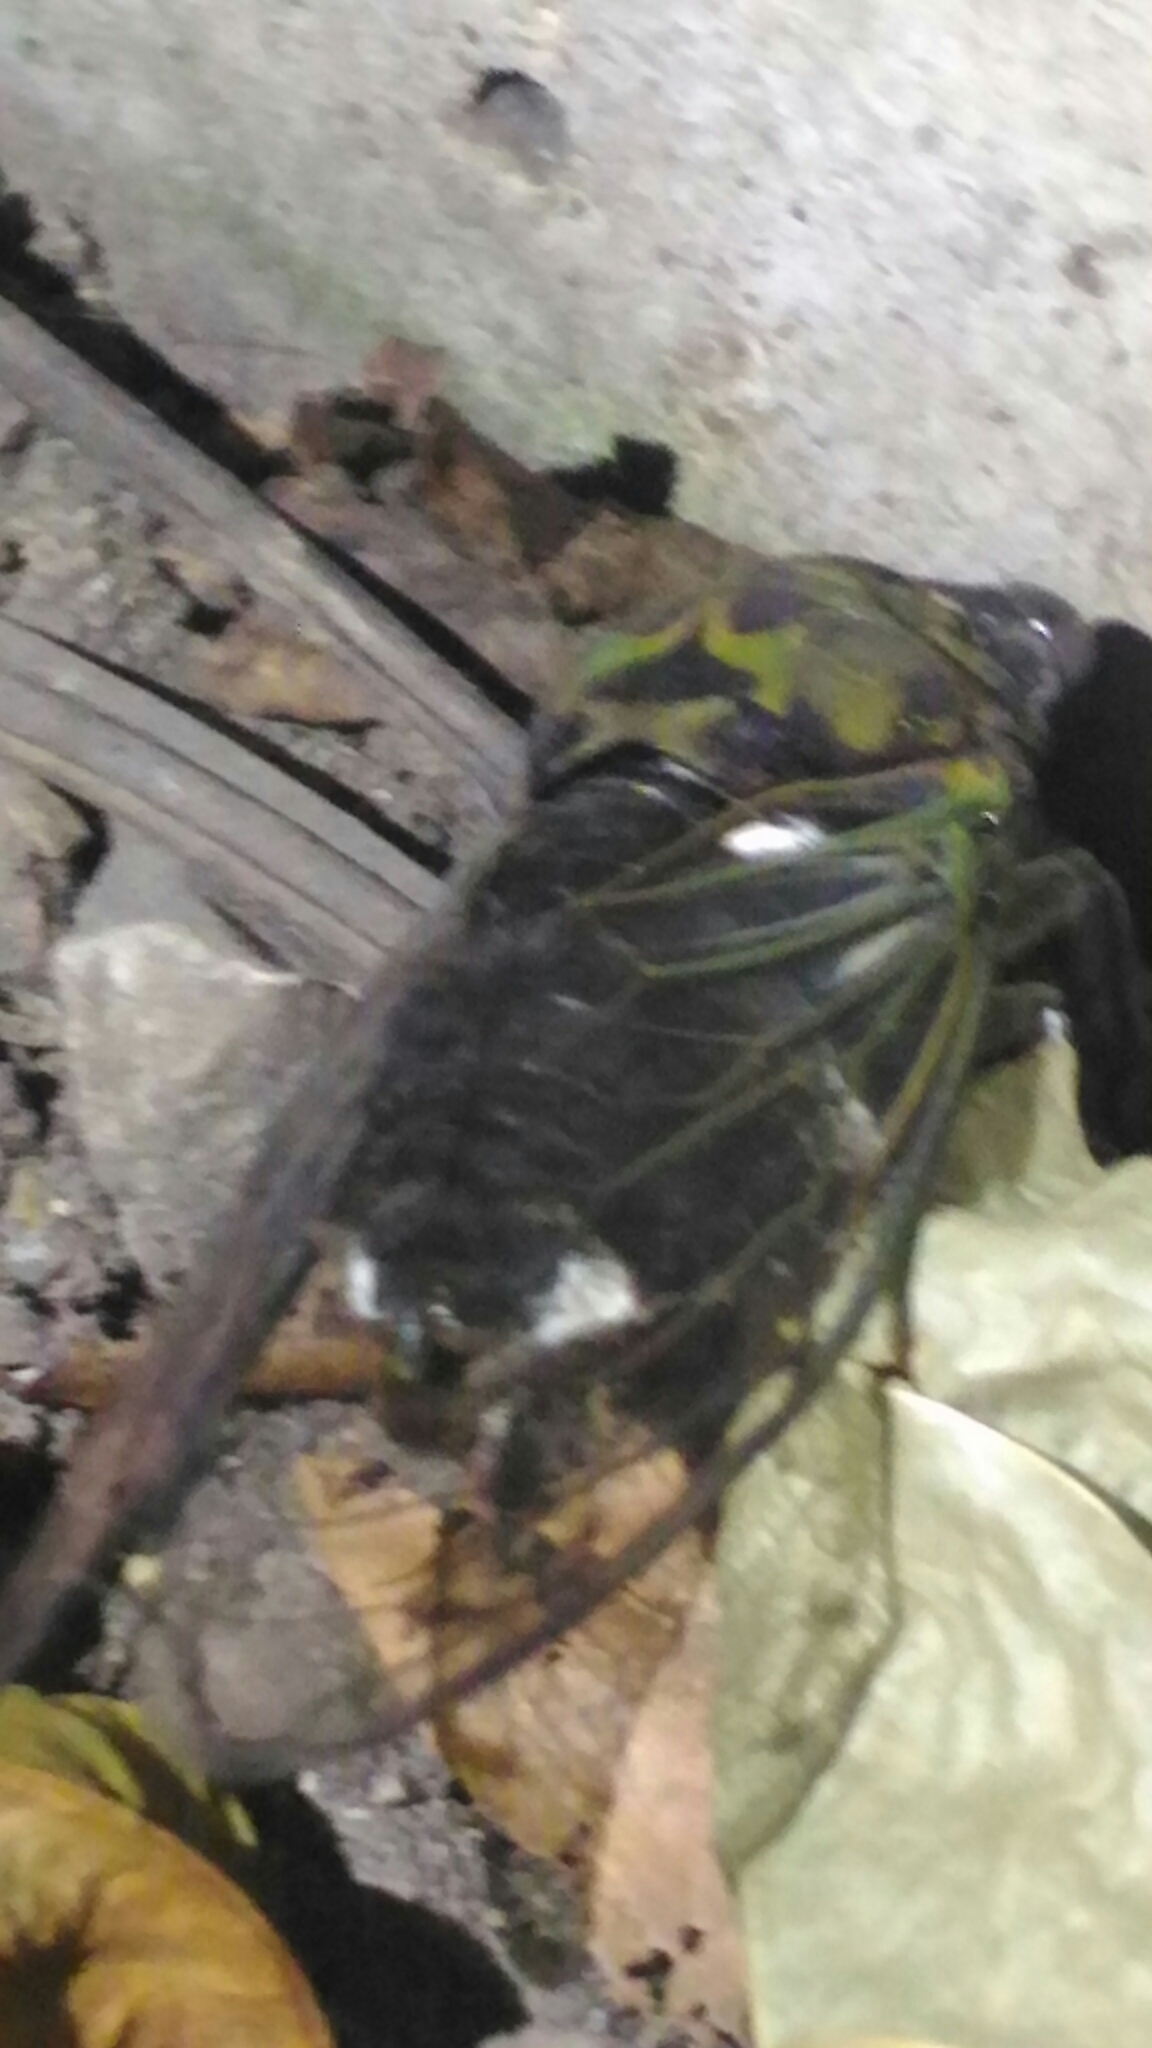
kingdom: Animalia
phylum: Arthropoda
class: Insecta
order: Hemiptera
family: Cicadidae
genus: Neotibicen
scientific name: Neotibicen pruinosus
